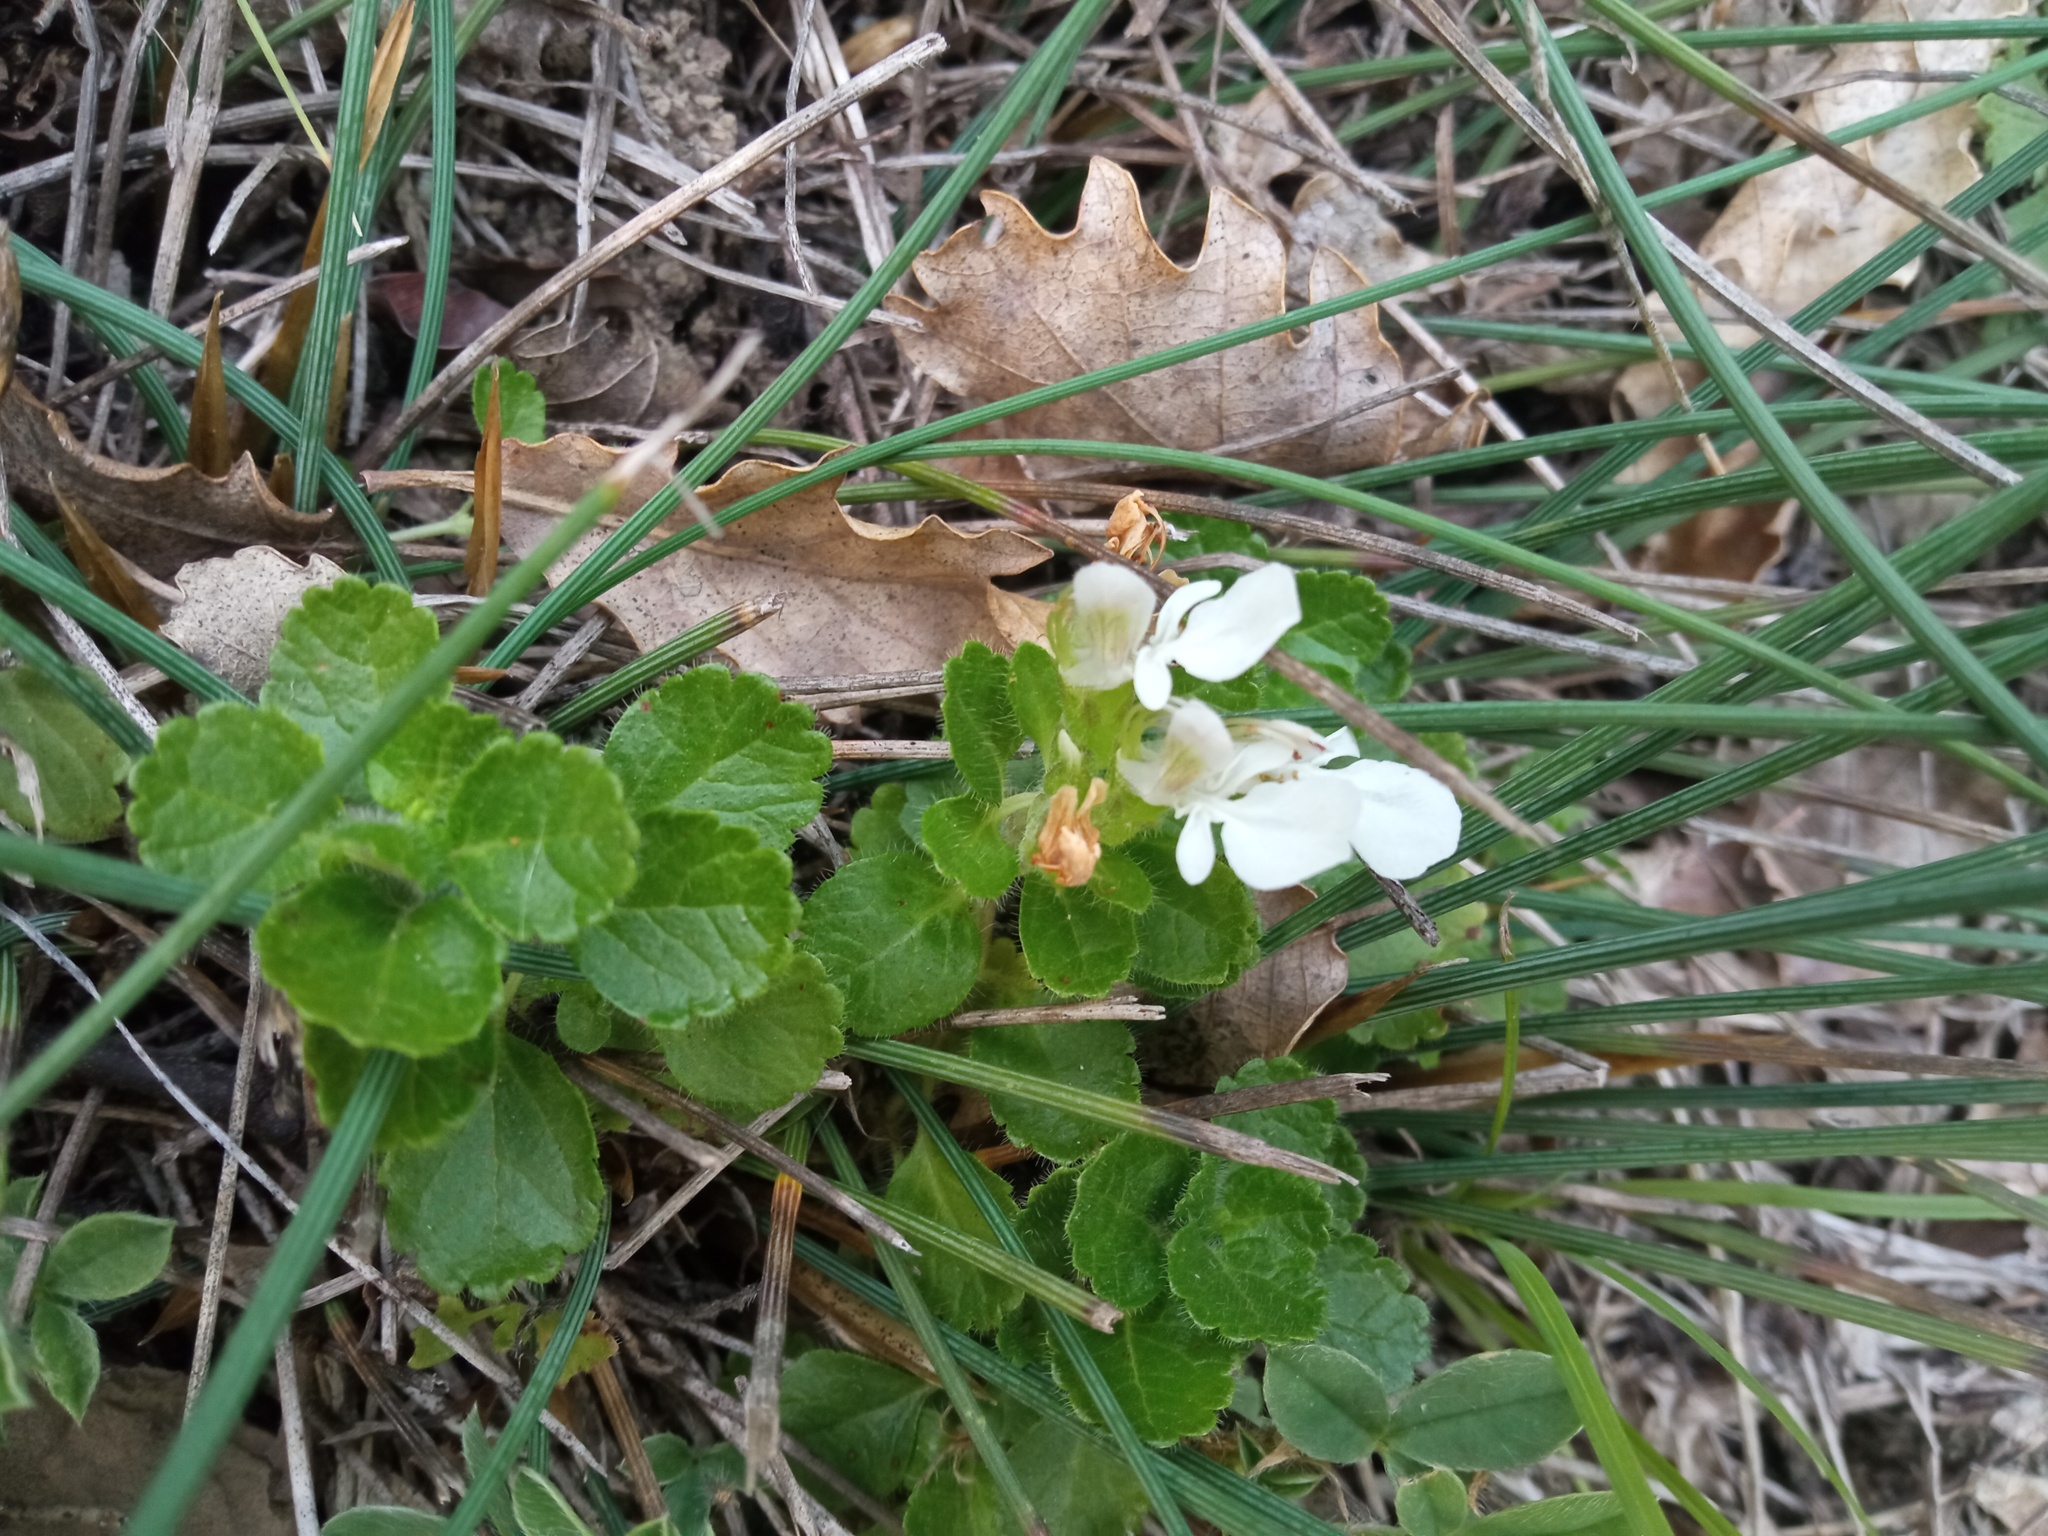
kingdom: Plantae
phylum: Tracheophyta
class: Magnoliopsida
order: Lamiales
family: Lamiaceae
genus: Teucrium
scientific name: Teucrium pyrenaicum
